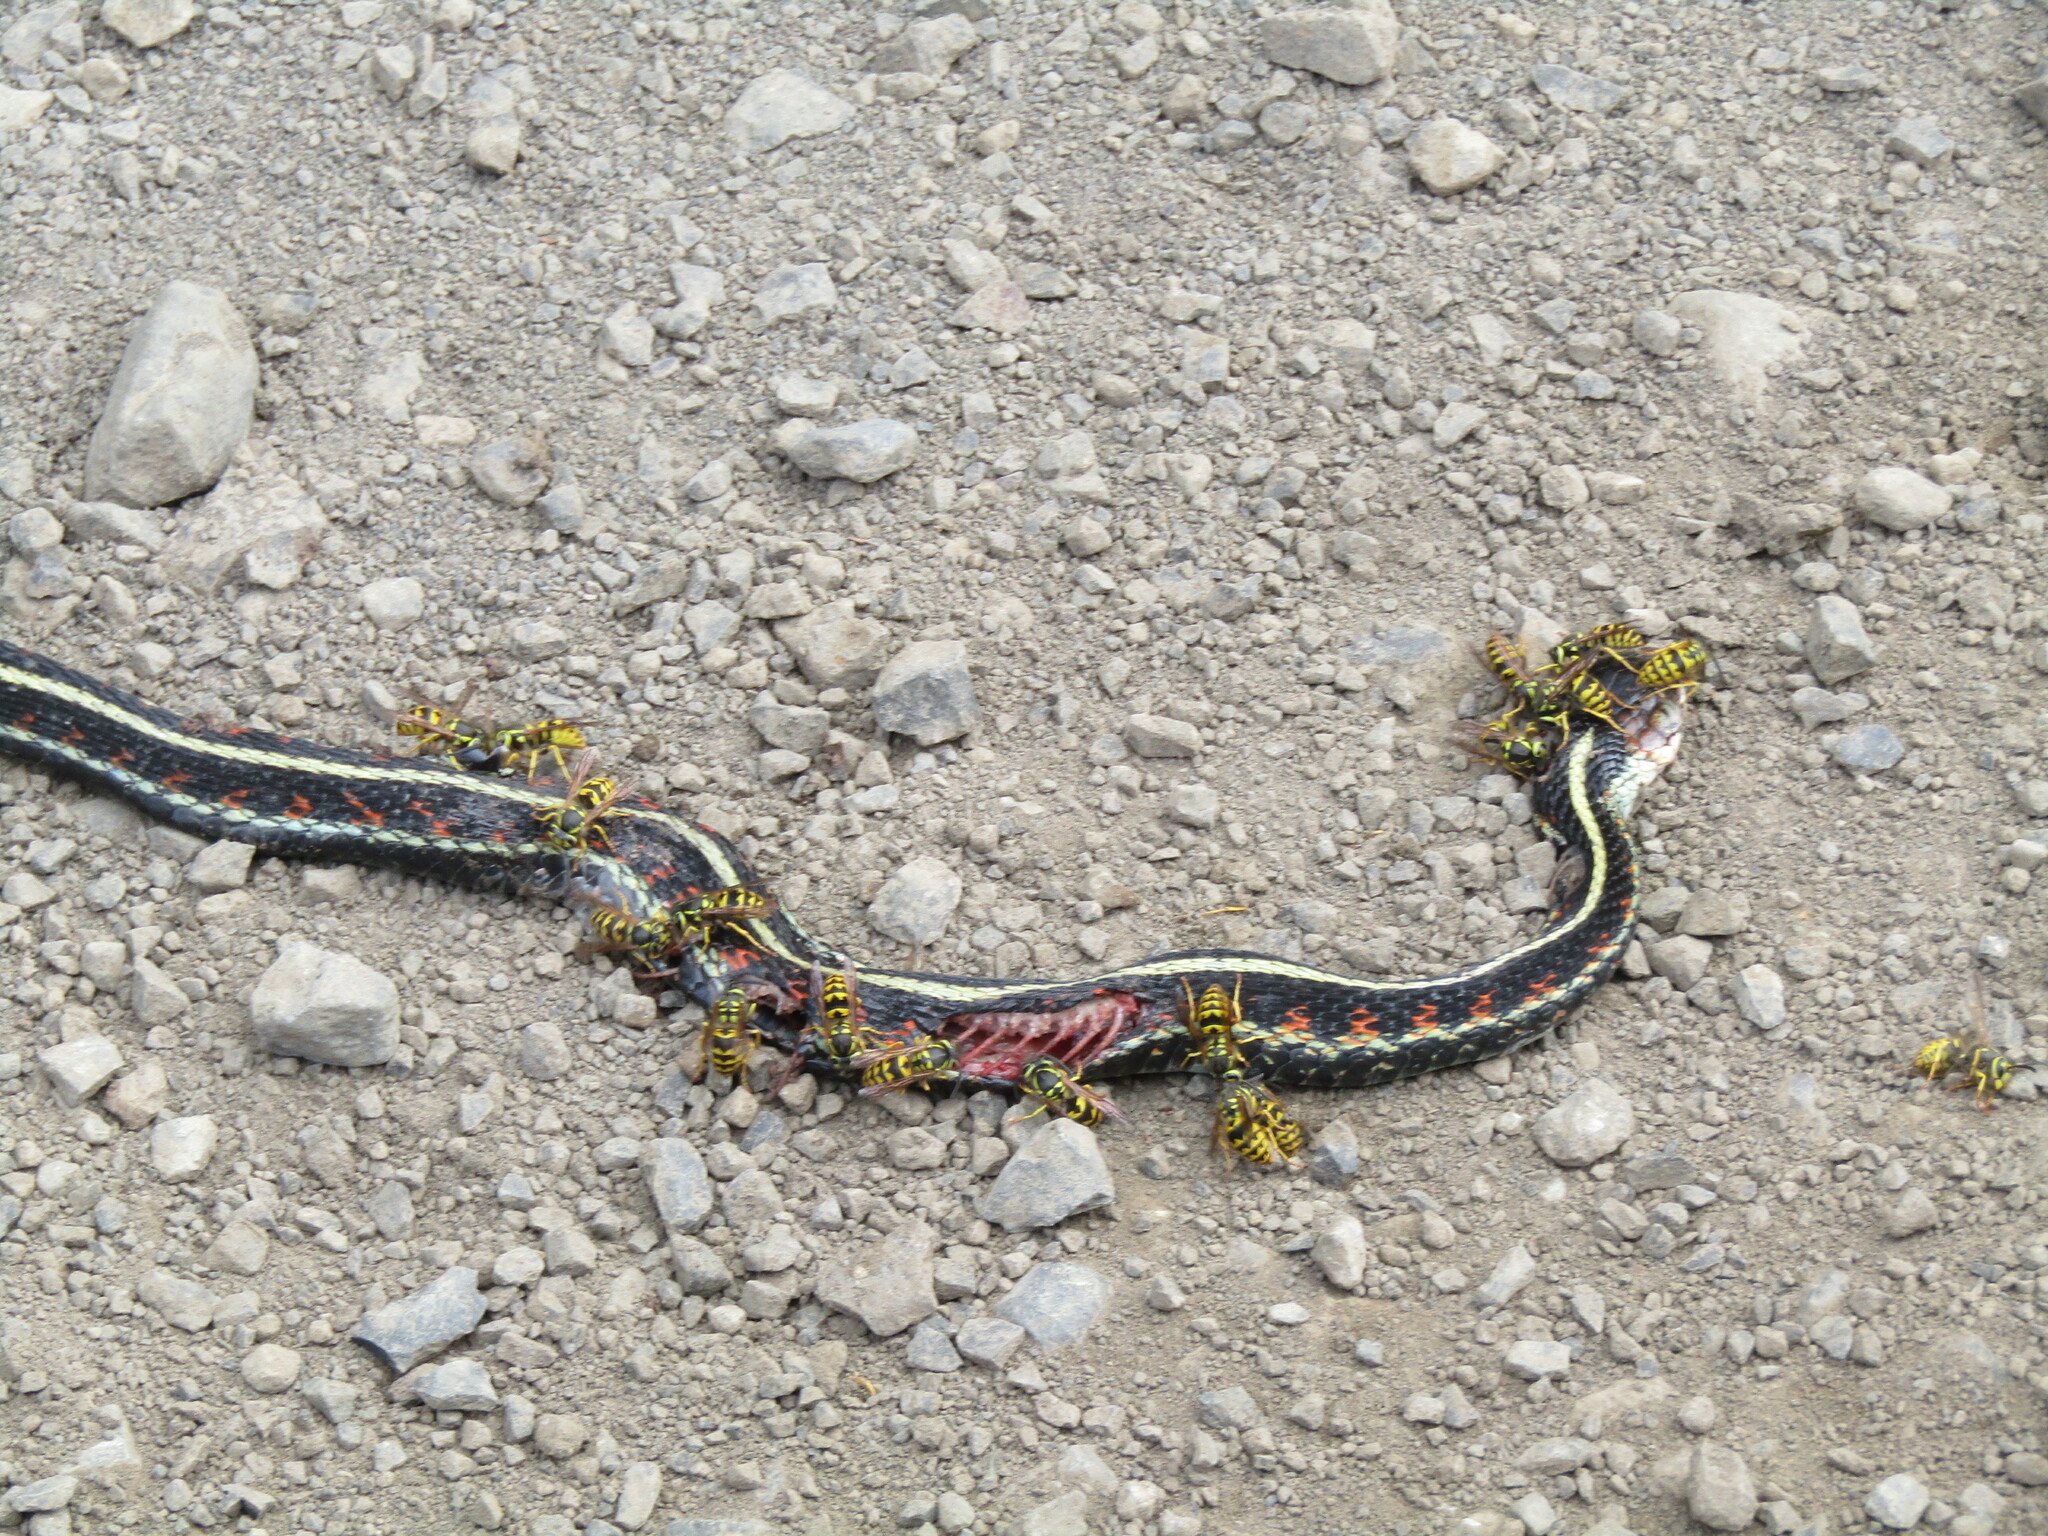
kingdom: Animalia
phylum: Chordata
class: Squamata
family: Colubridae
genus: Thamnophis
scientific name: Thamnophis sirtalis
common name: Common garter snake
